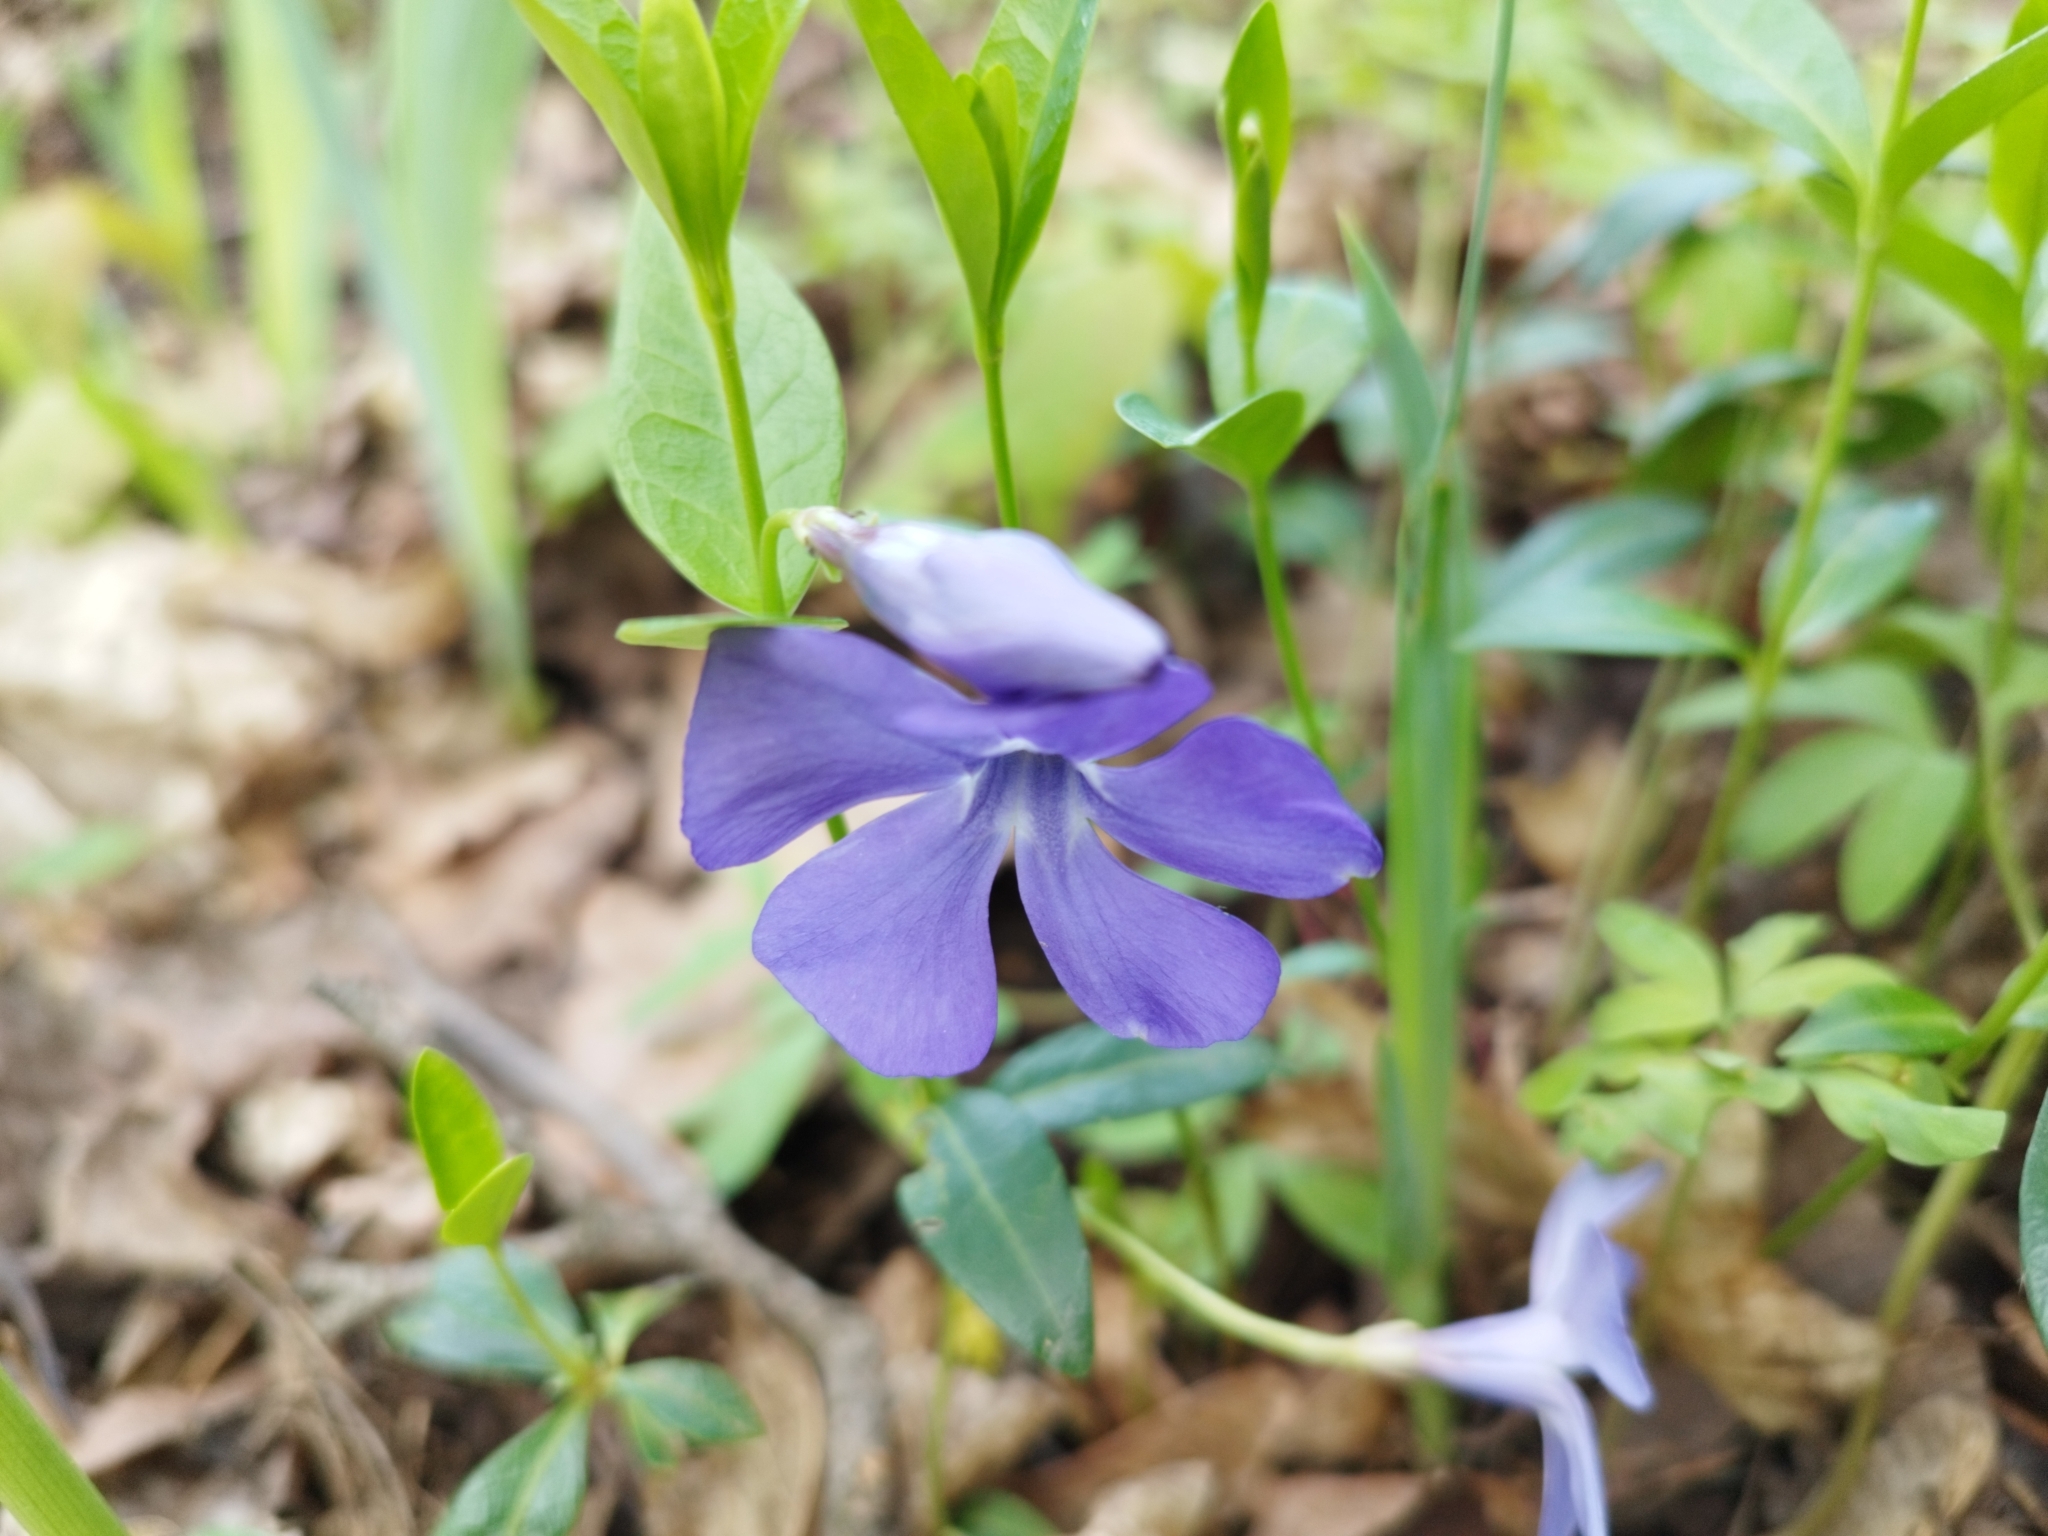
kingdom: Plantae
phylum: Tracheophyta
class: Magnoliopsida
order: Gentianales
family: Apocynaceae
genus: Vinca
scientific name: Vinca minor
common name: Lesser periwinkle
